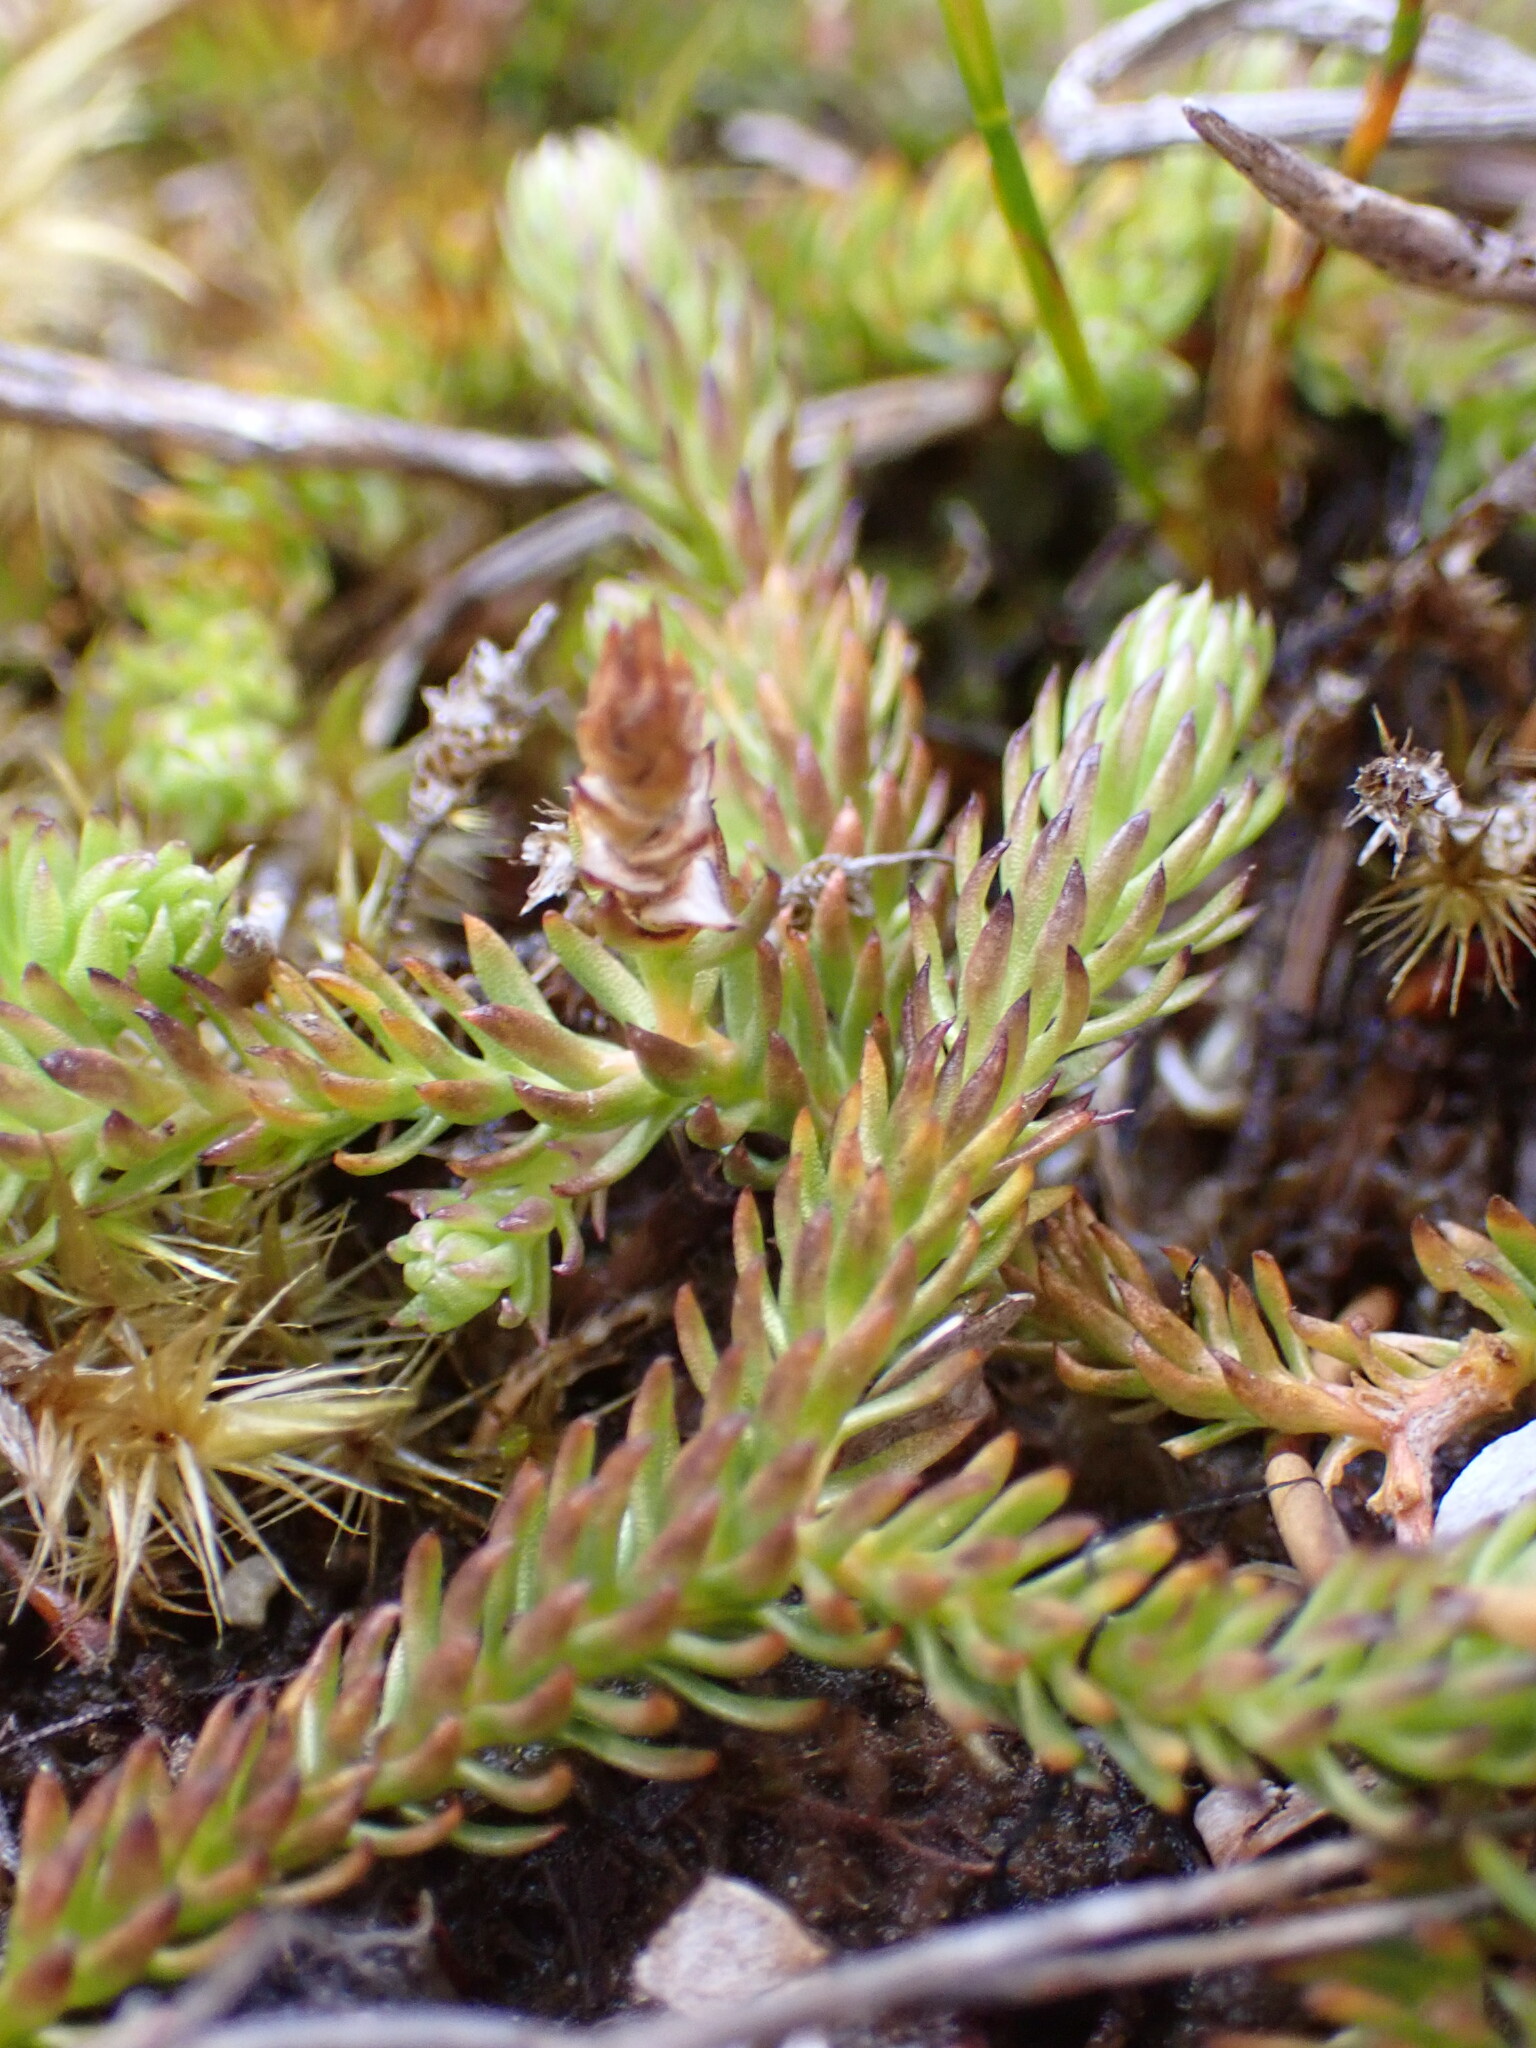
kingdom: Plantae
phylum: Tracheophyta
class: Lycopodiopsida
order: Lycopodiales
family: Lycopodiaceae
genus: Lateristachys
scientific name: Lateristachys diffusa
